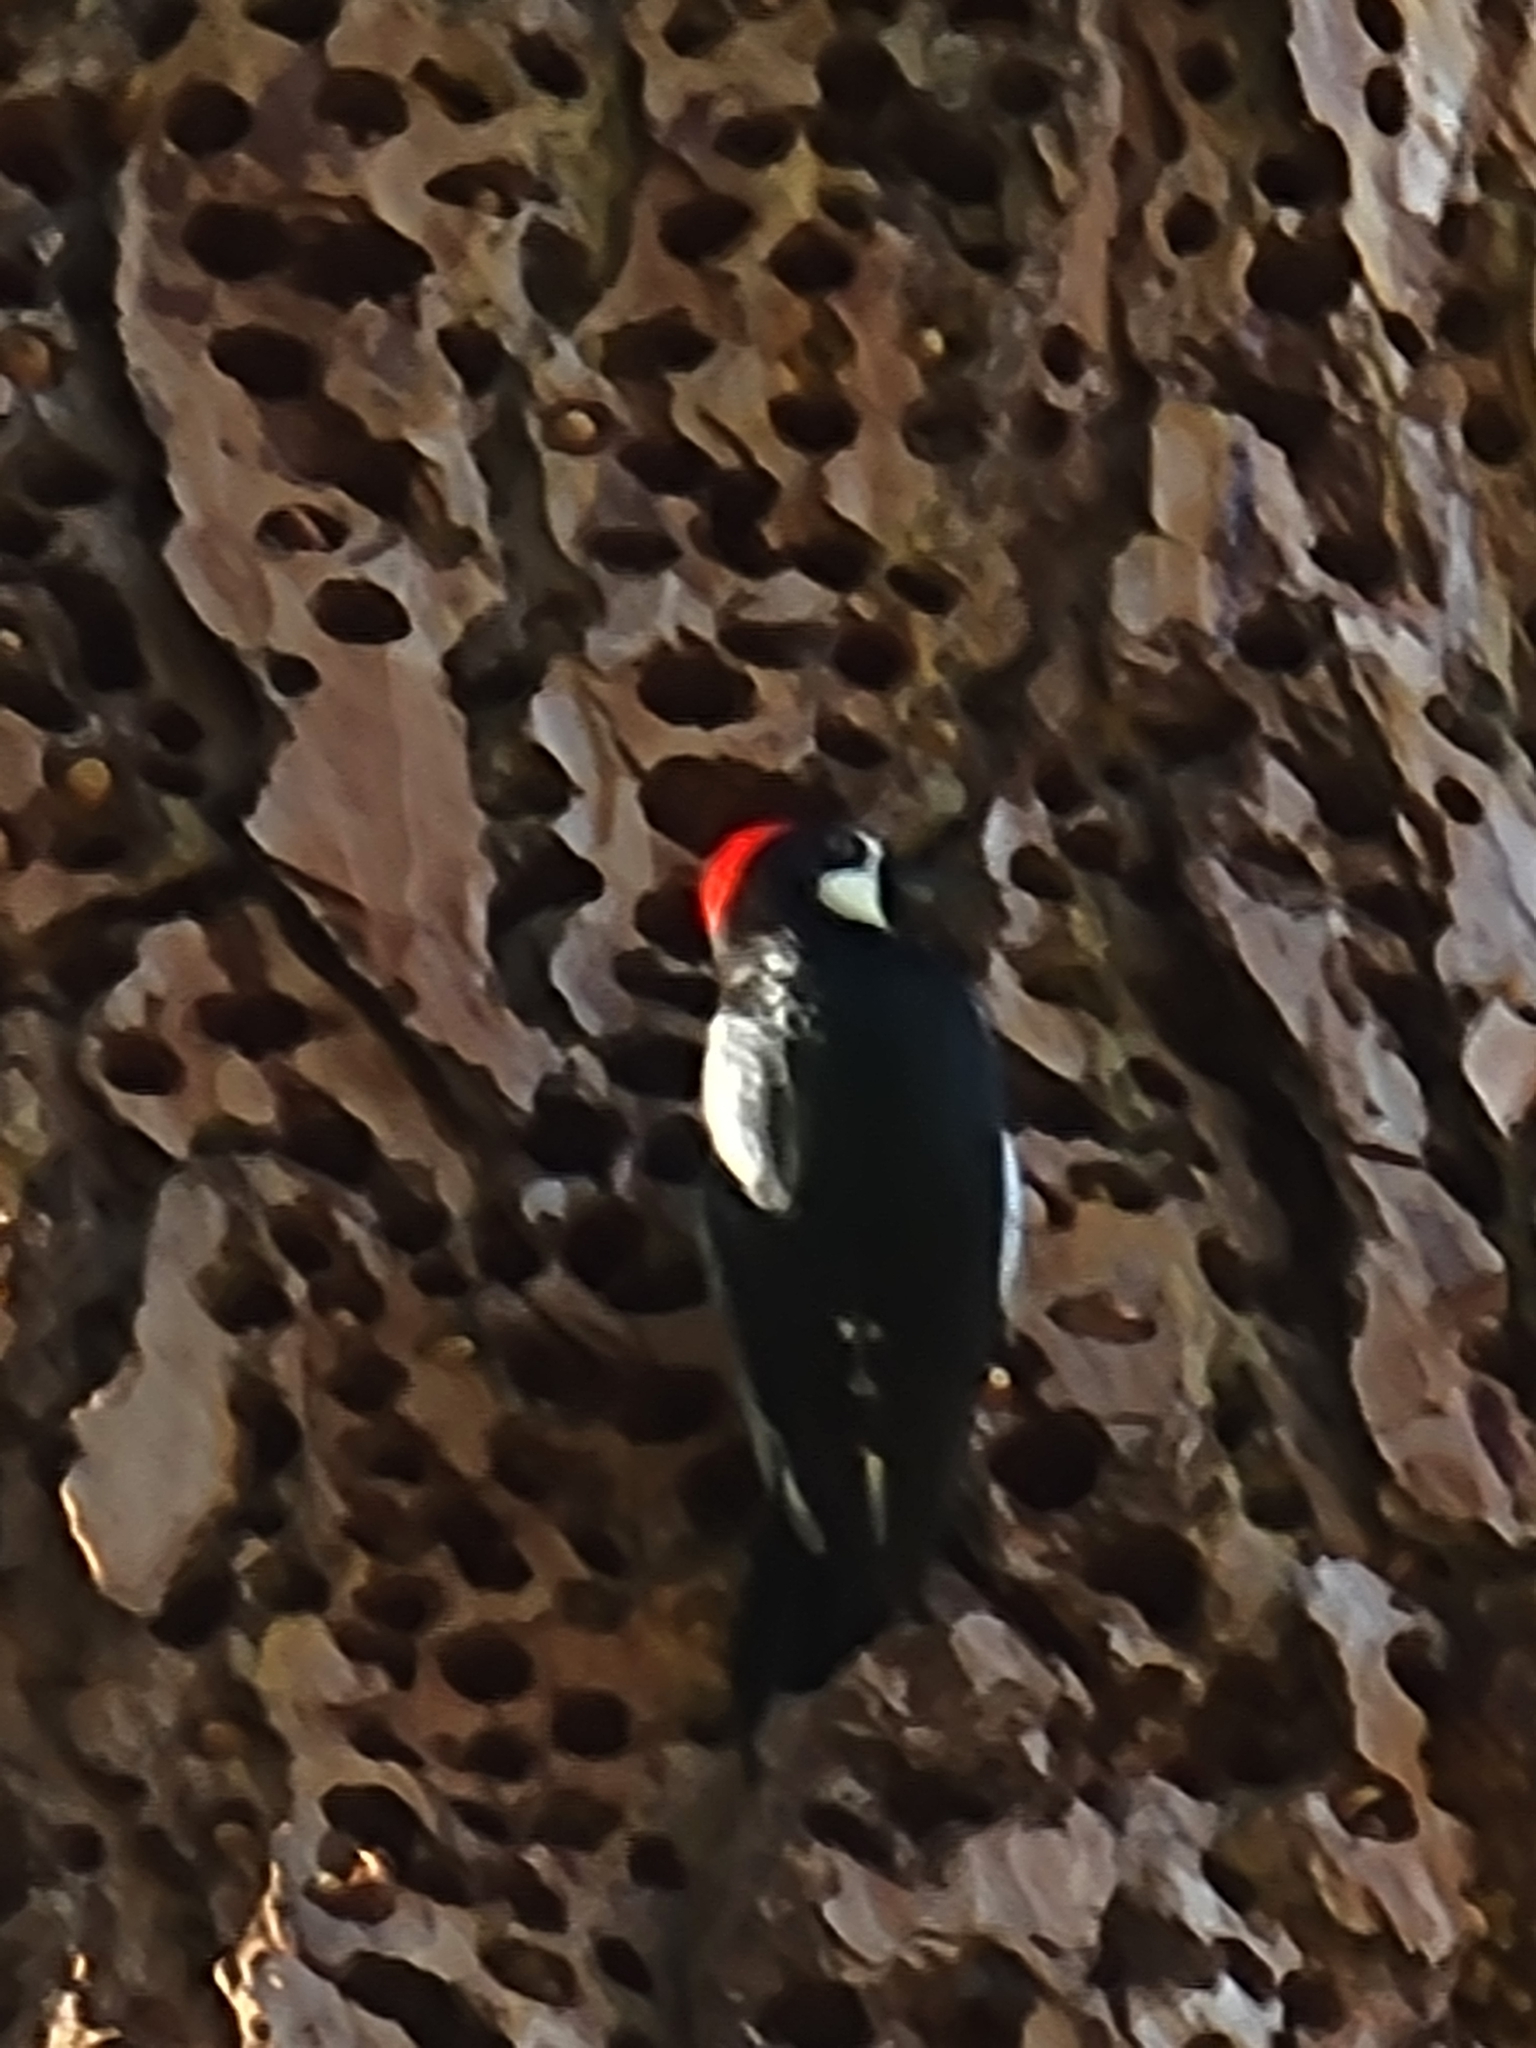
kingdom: Animalia
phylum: Chordata
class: Aves
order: Piciformes
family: Picidae
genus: Melanerpes
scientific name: Melanerpes formicivorus
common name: Acorn woodpecker
